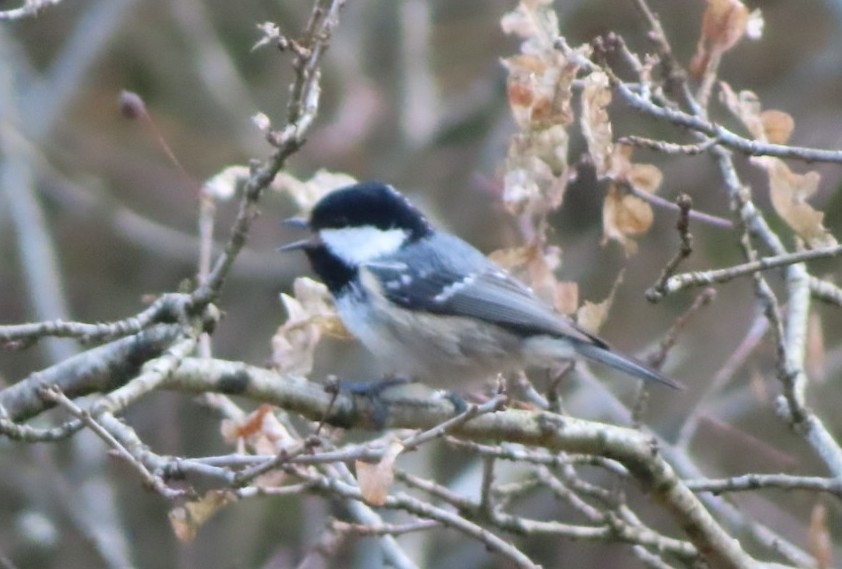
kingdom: Animalia
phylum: Chordata
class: Aves
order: Passeriformes
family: Paridae
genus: Periparus
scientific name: Periparus ater
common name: Coal tit
